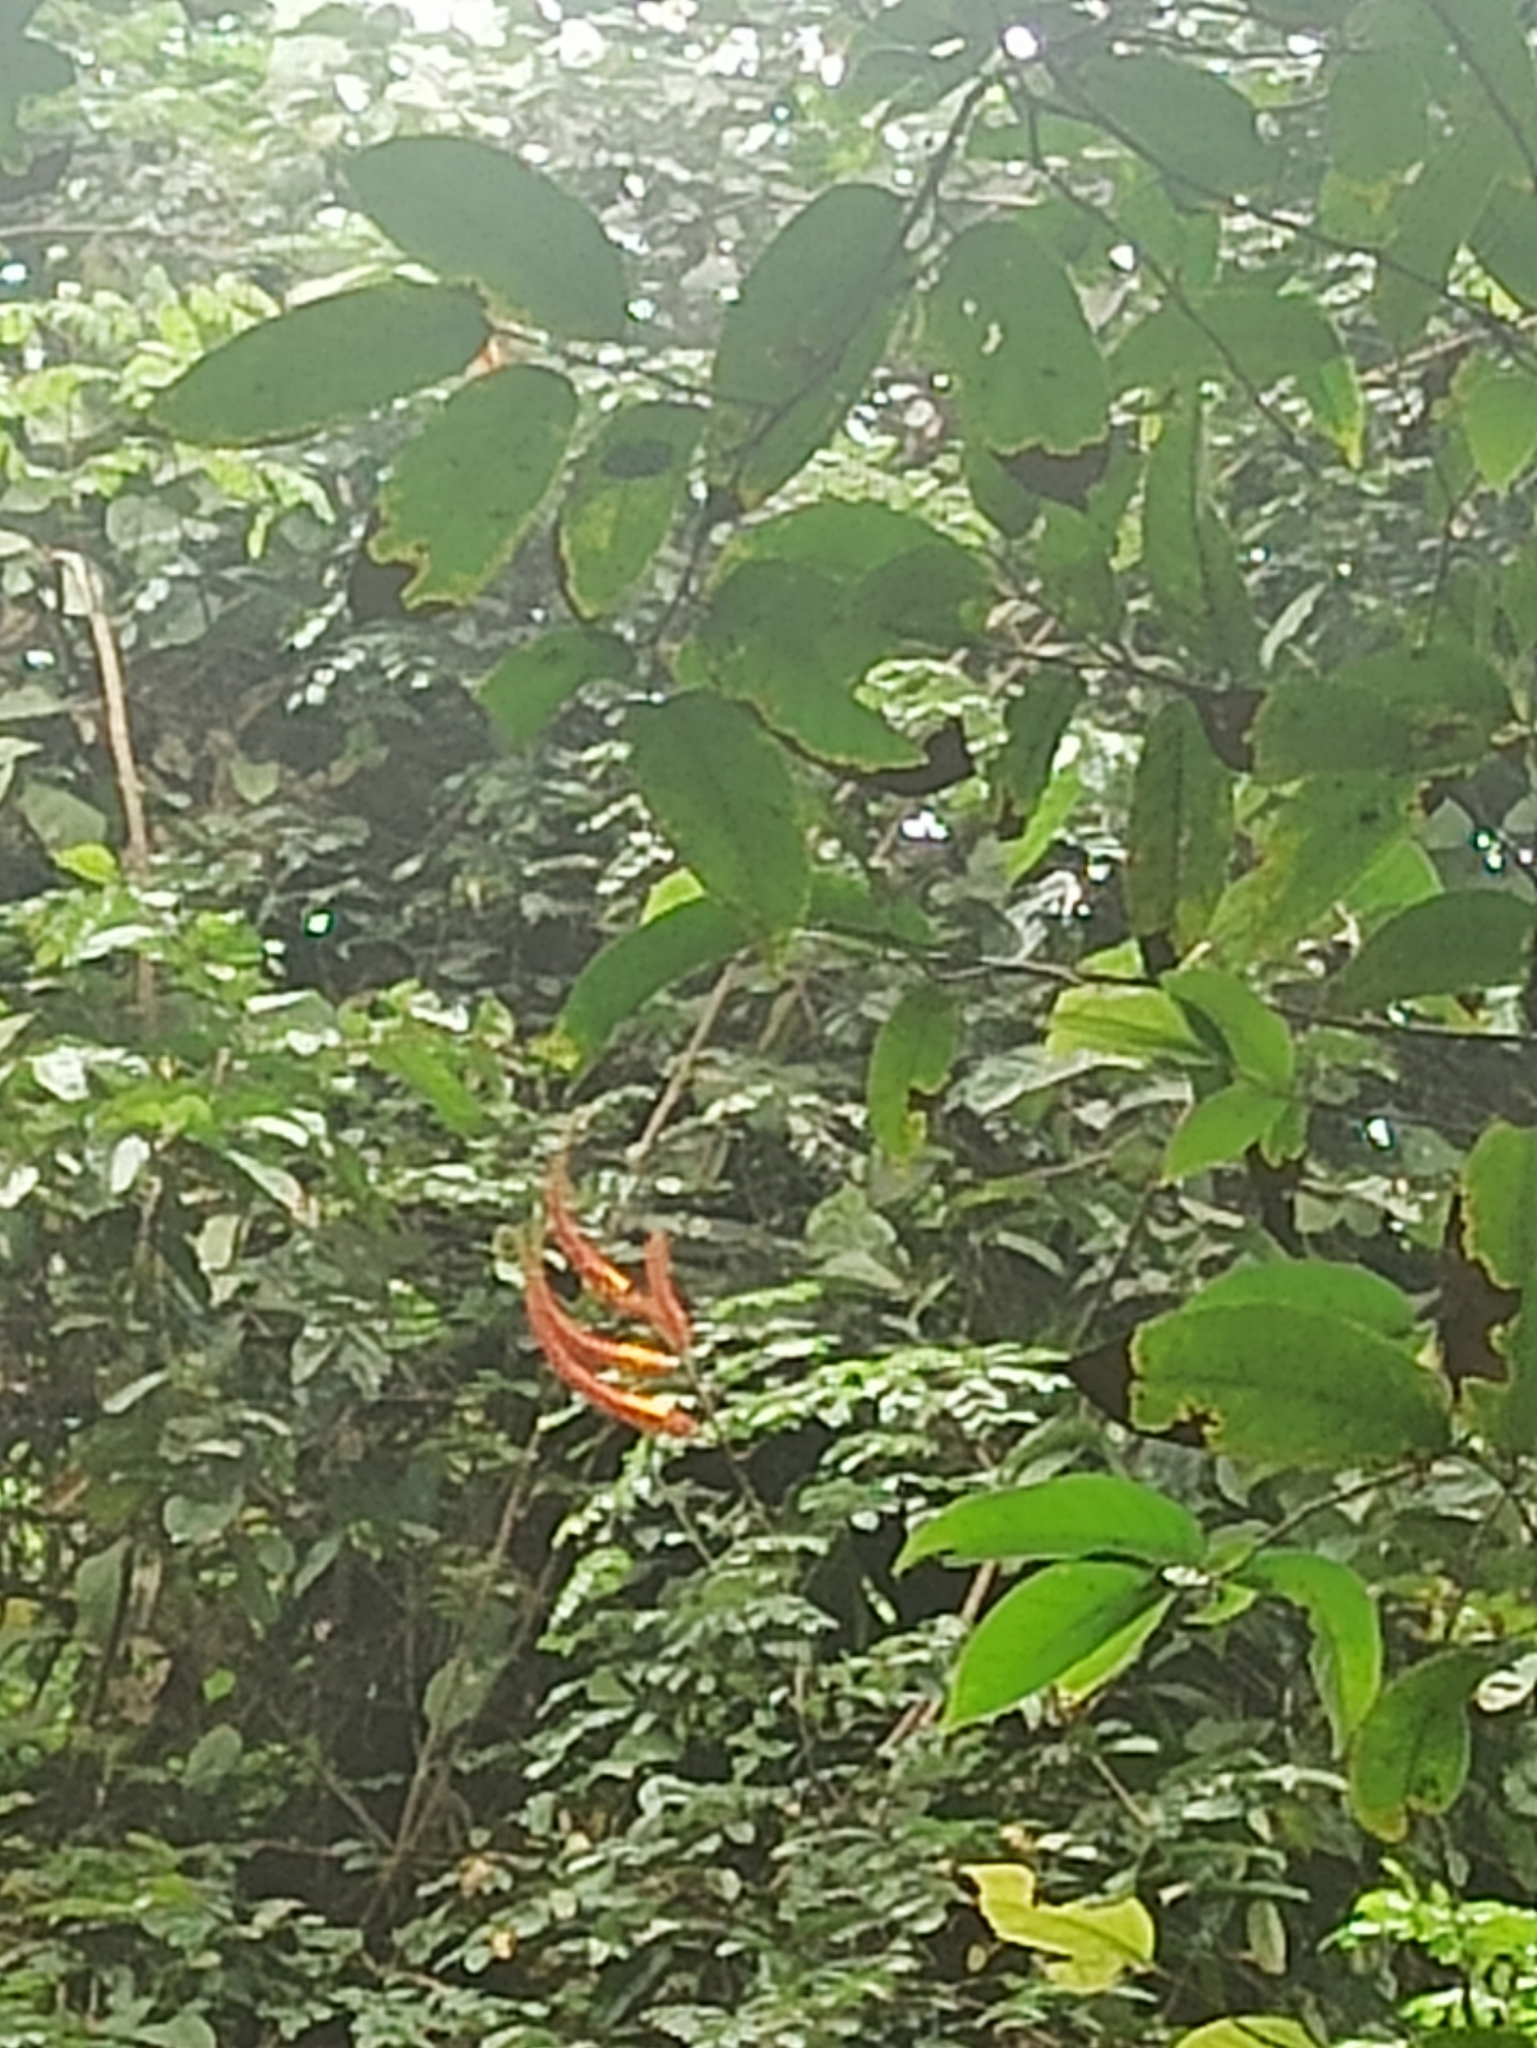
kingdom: Plantae
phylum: Tracheophyta
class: Magnoliopsida
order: Fabales
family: Fabaceae
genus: Moullava
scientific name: Moullava spicata
